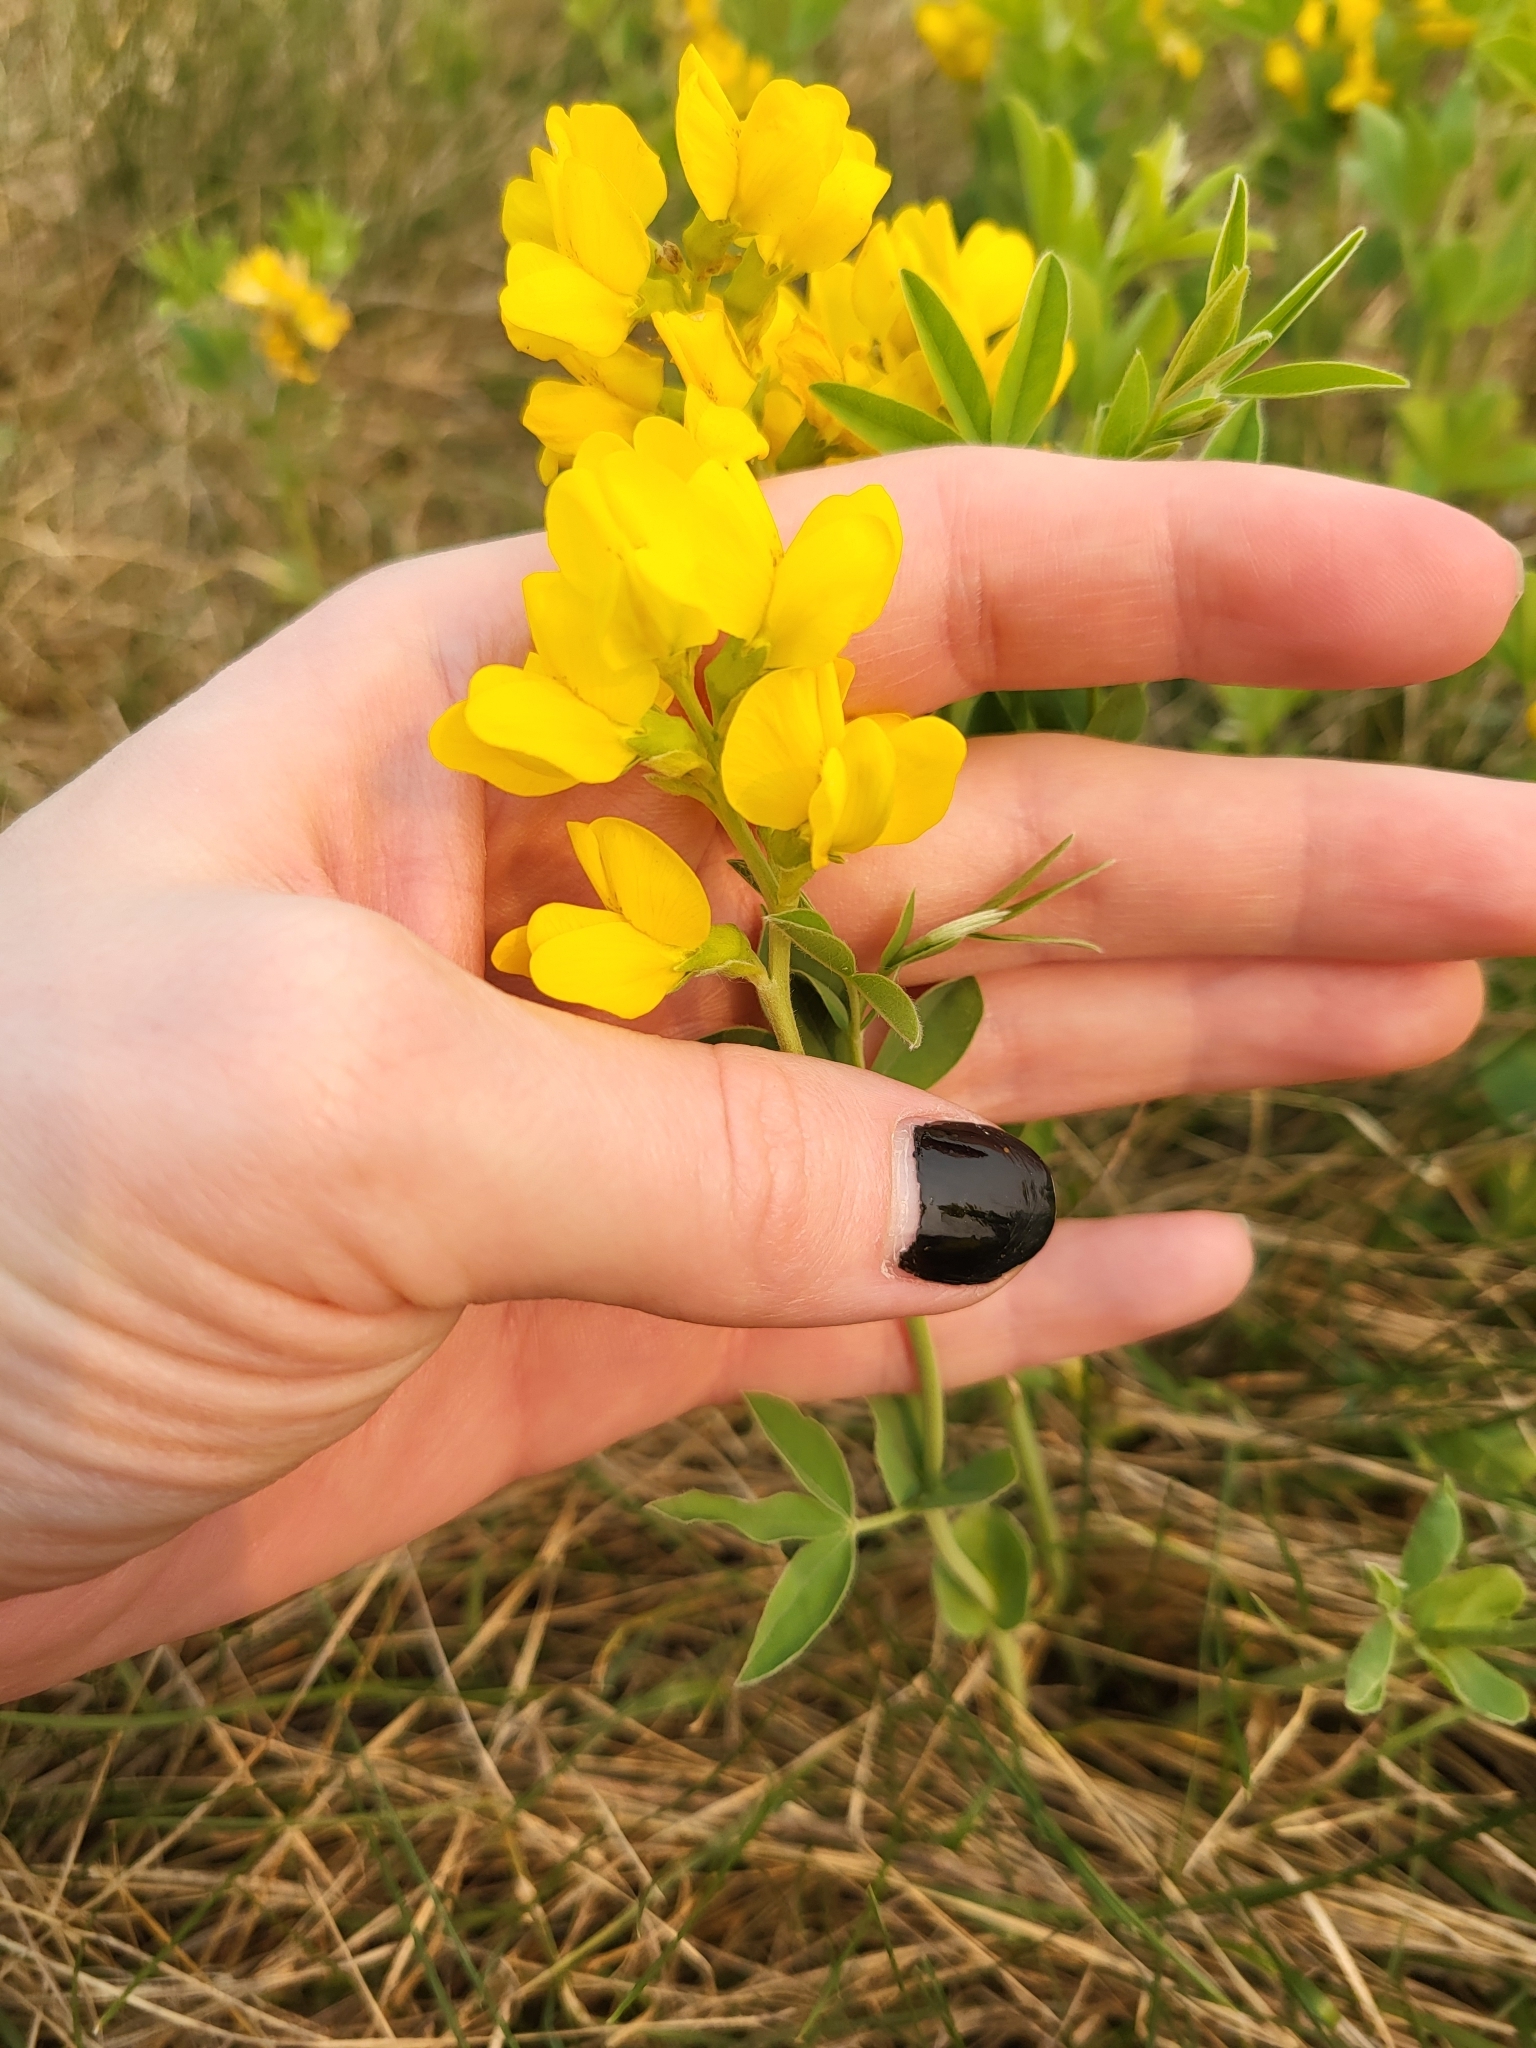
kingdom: Plantae
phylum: Tracheophyta
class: Magnoliopsida
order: Fabales
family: Fabaceae
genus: Thermopsis
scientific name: Thermopsis rhombifolia
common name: Circle-pod-pea
